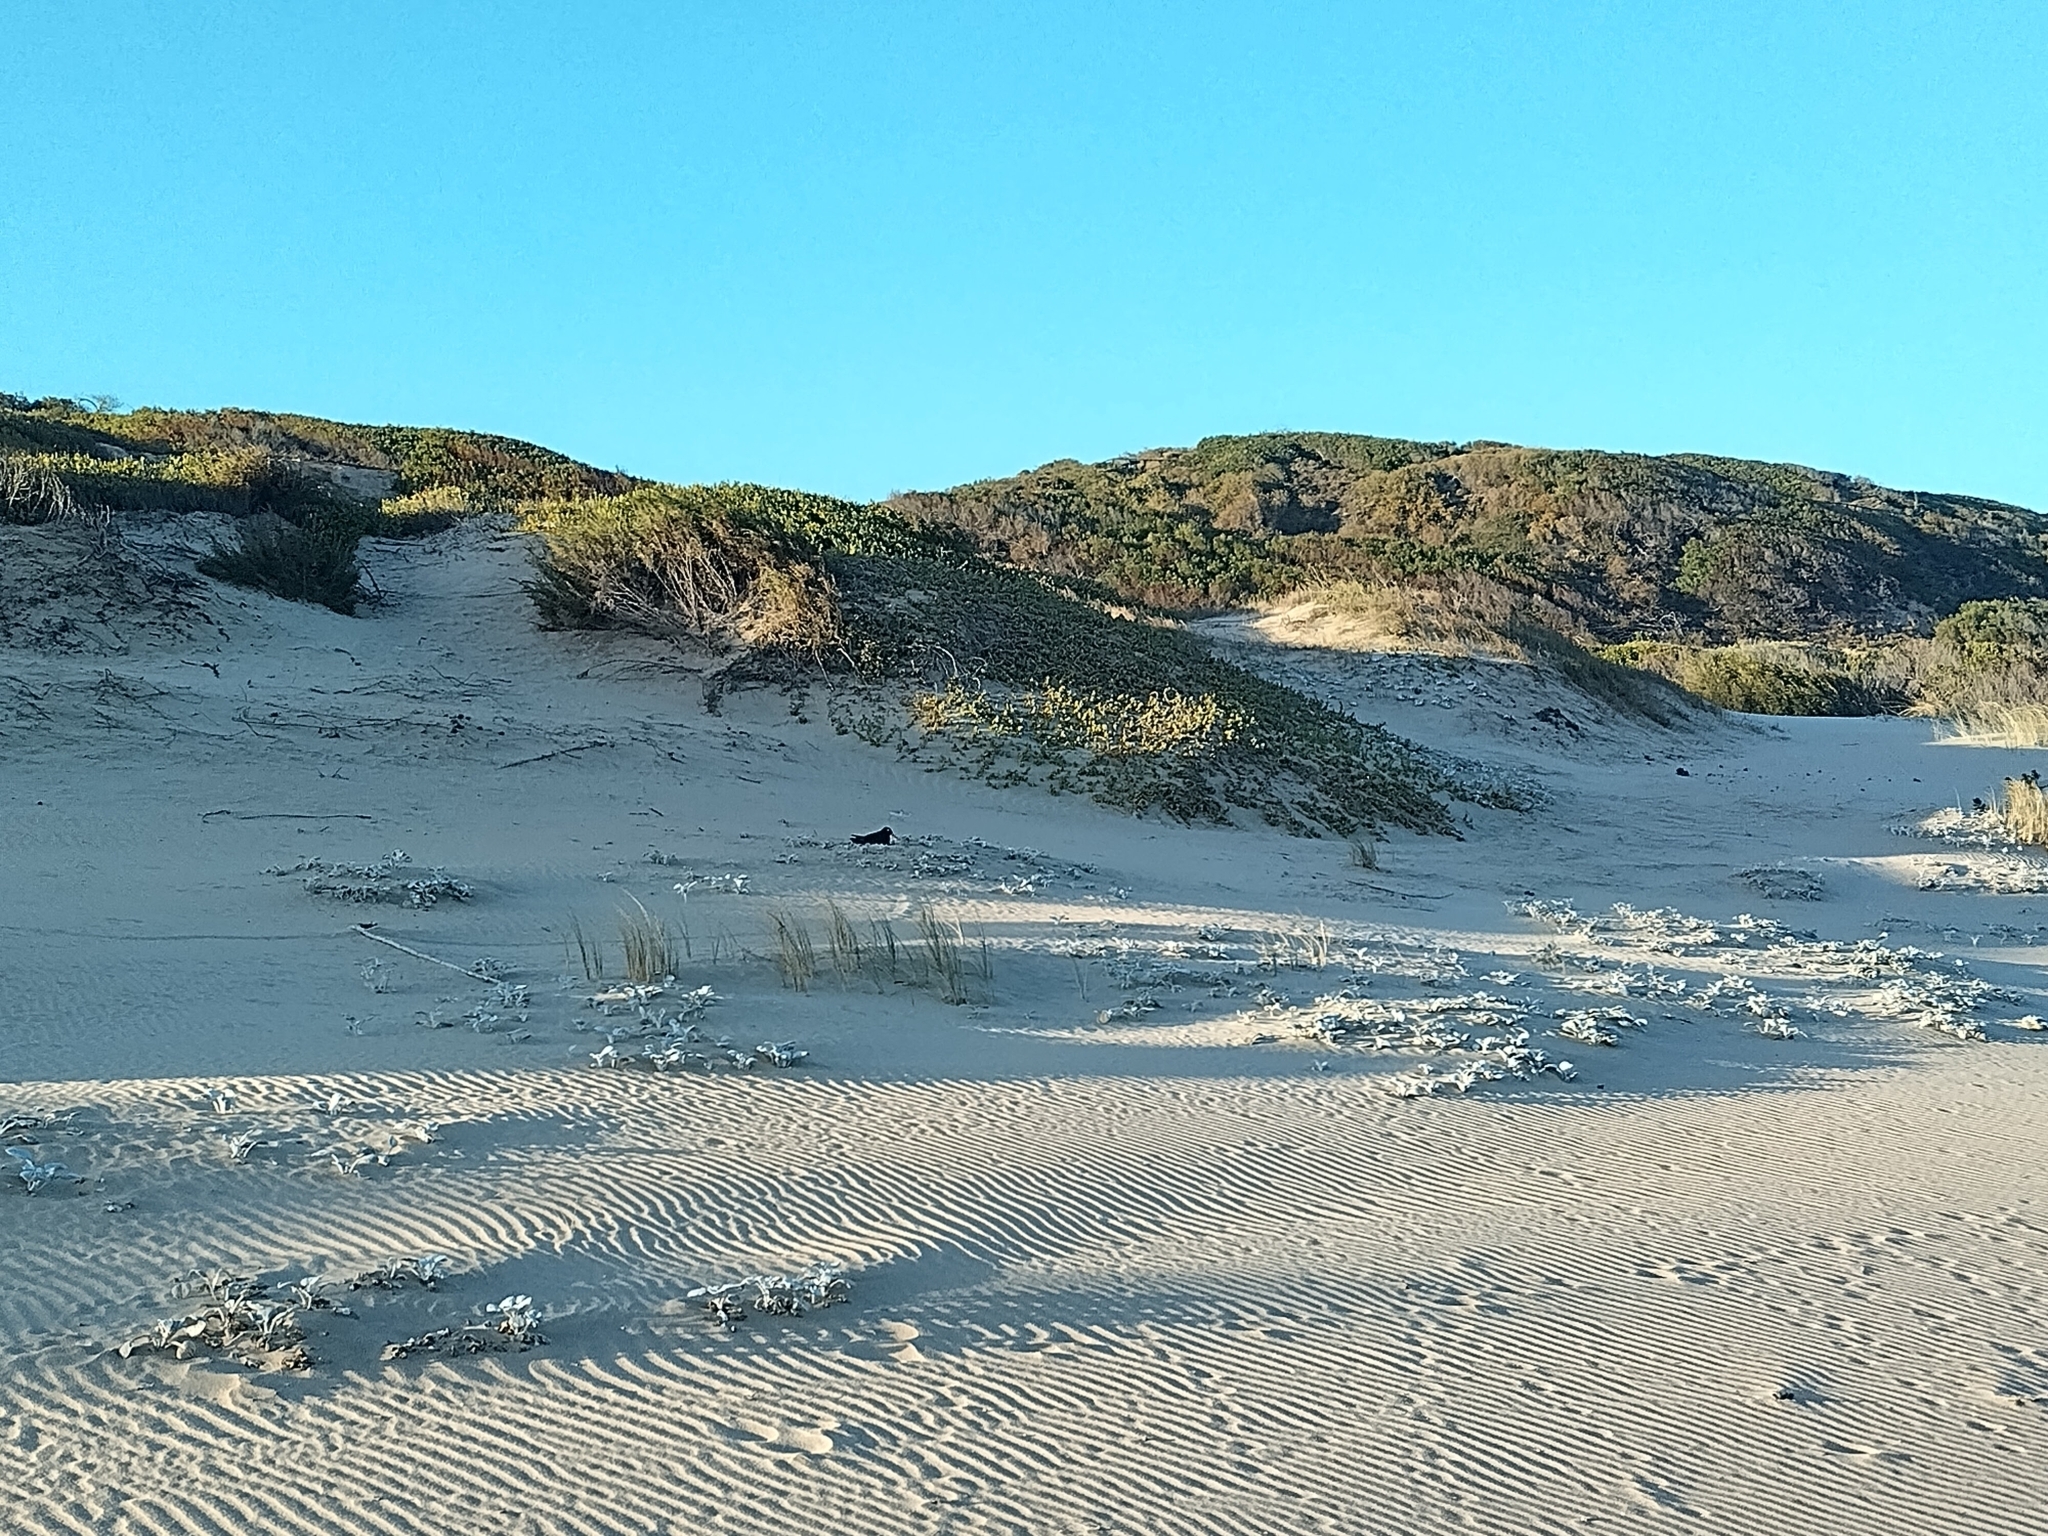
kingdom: Animalia
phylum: Chordata
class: Aves
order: Charadriiformes
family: Haematopodidae
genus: Haematopus
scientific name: Haematopus moquini
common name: African oystercatcher
